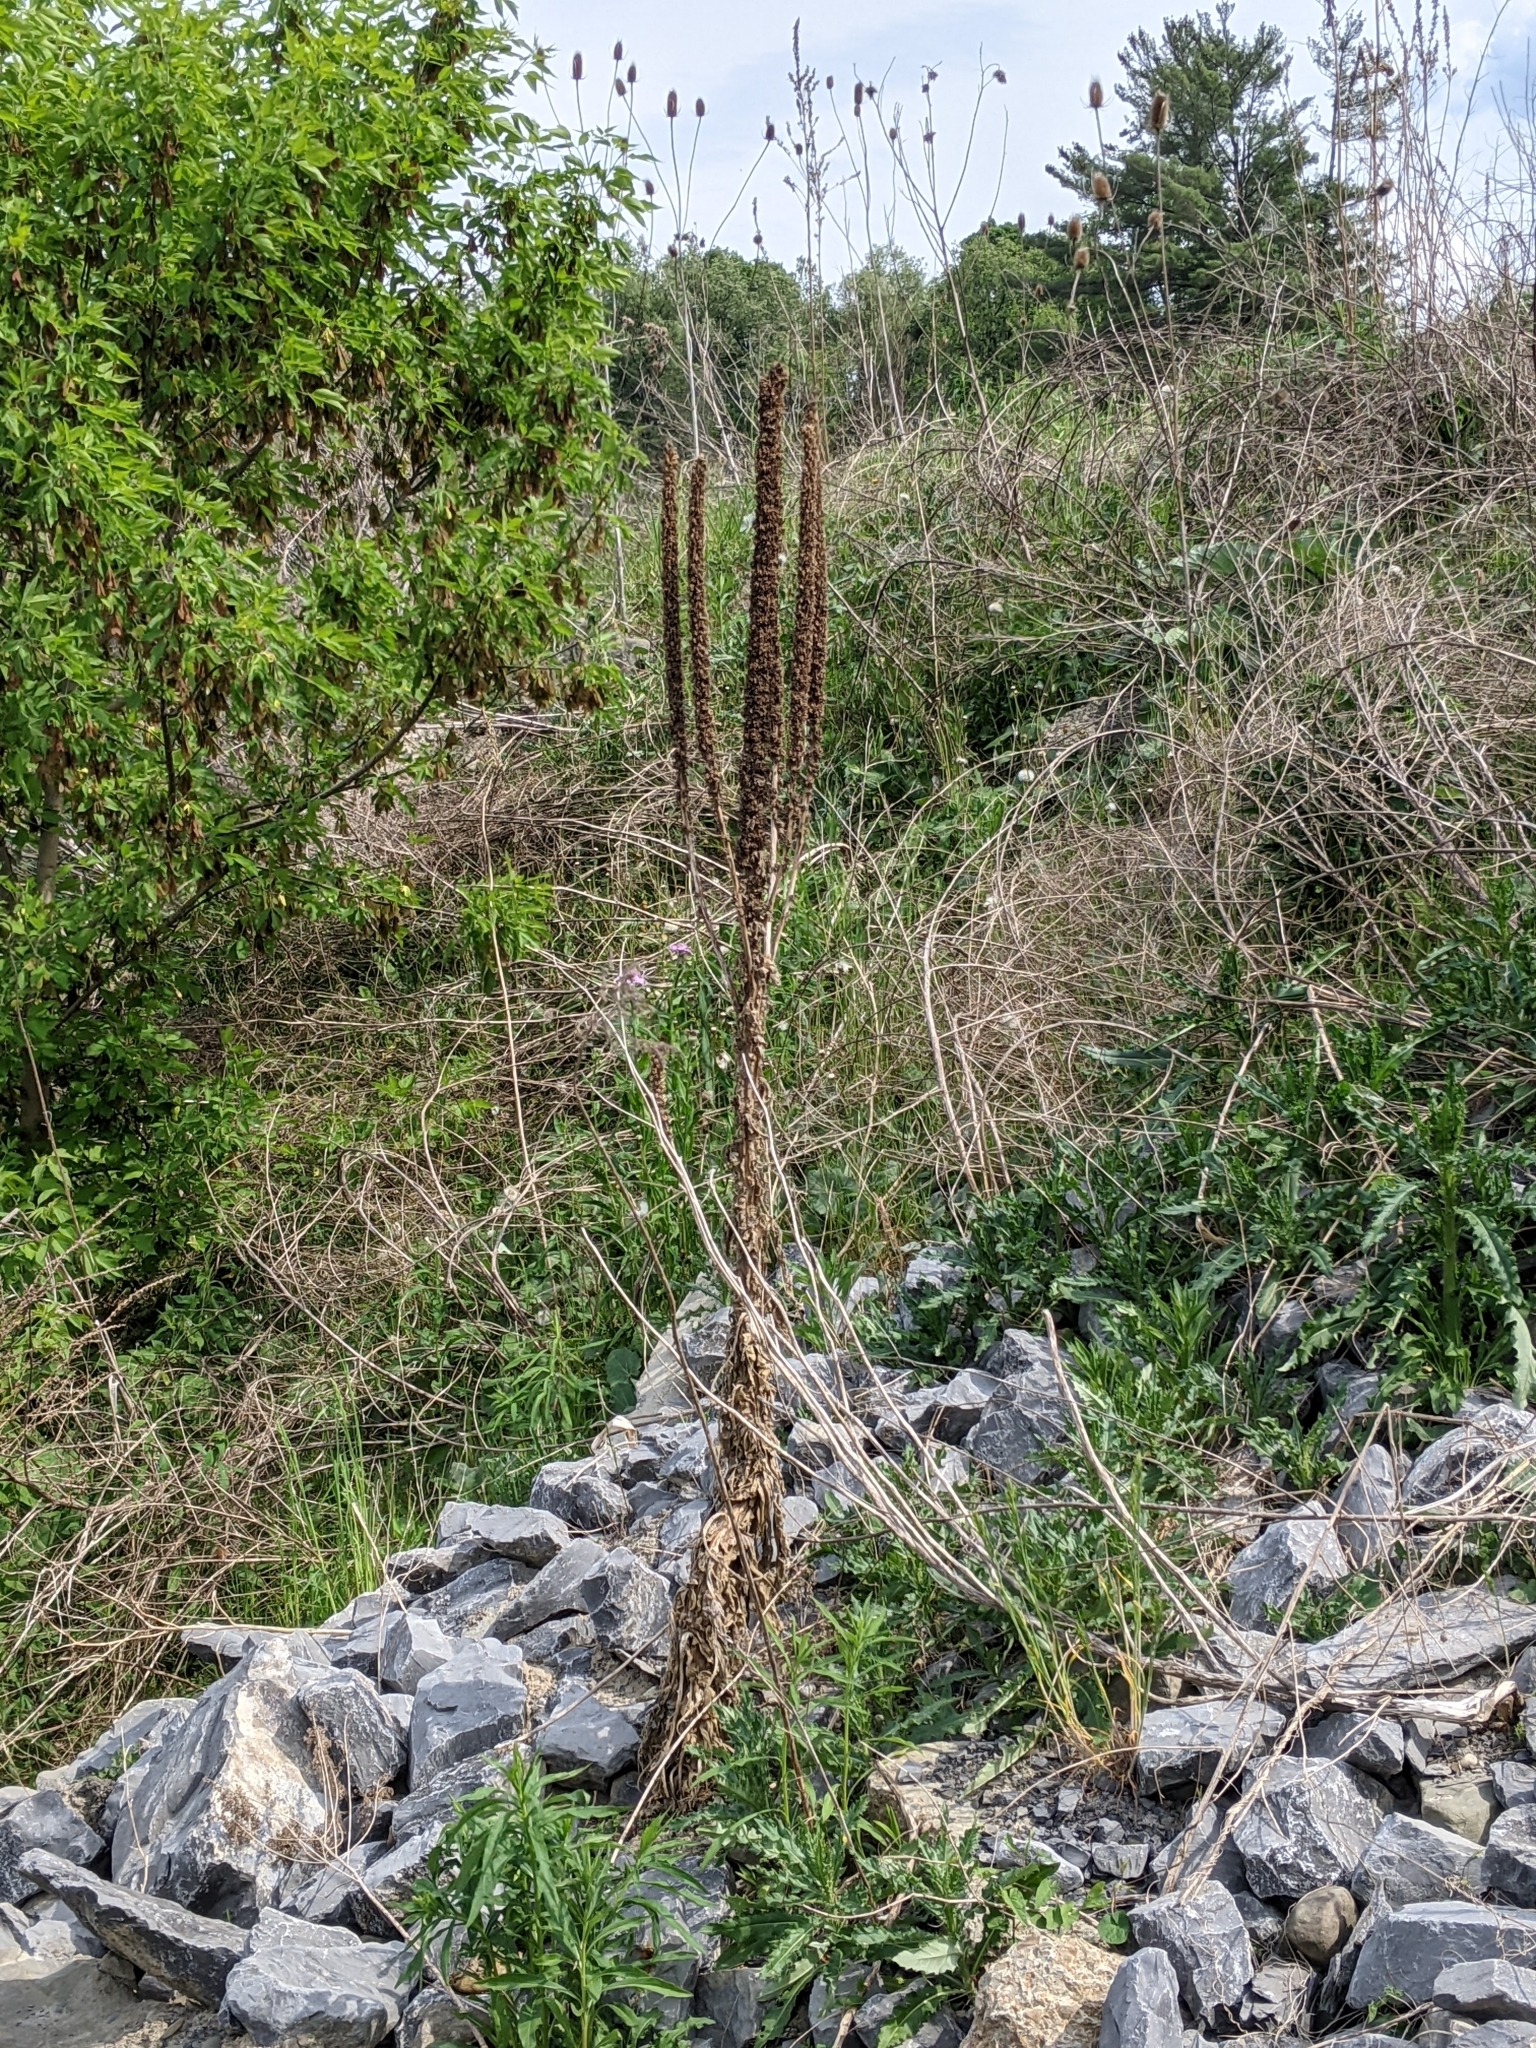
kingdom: Plantae
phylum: Tracheophyta
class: Magnoliopsida
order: Lamiales
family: Scrophulariaceae
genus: Verbascum
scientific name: Verbascum thapsus
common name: Common mullein
